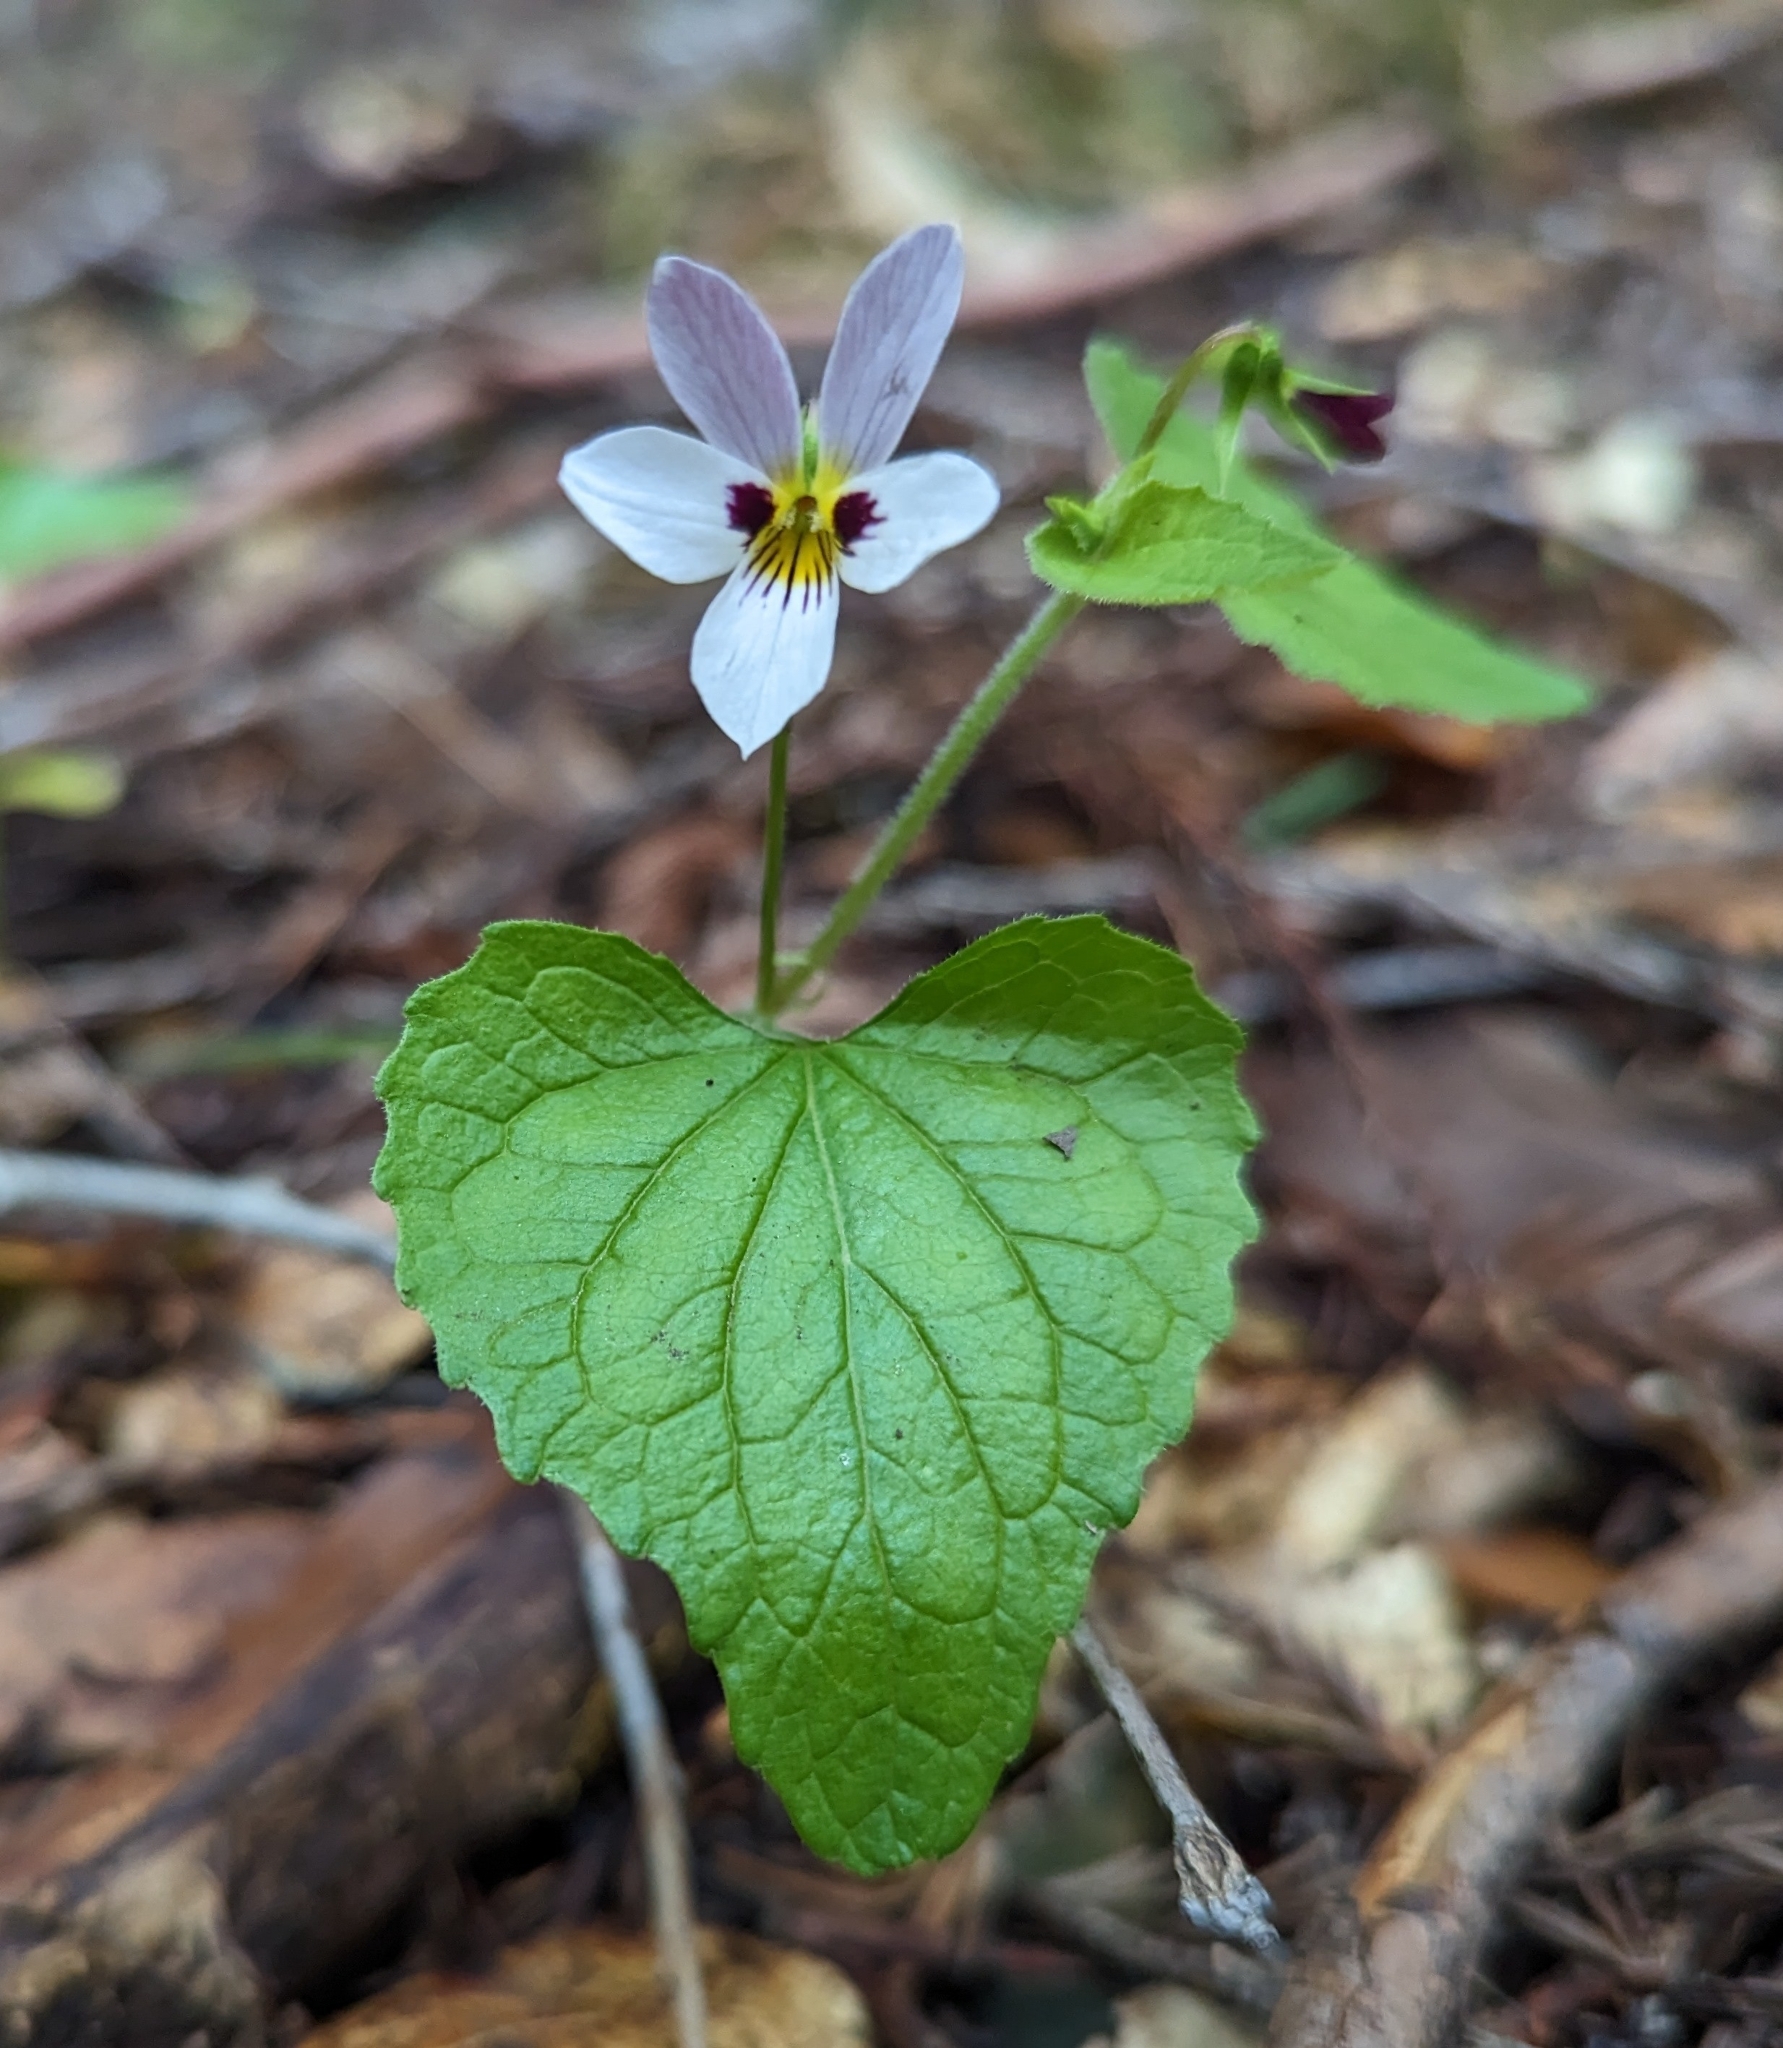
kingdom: Plantae
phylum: Tracheophyta
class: Magnoliopsida
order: Malpighiales
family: Violaceae
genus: Viola
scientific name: Viola ocellata
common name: Western heart's ease
